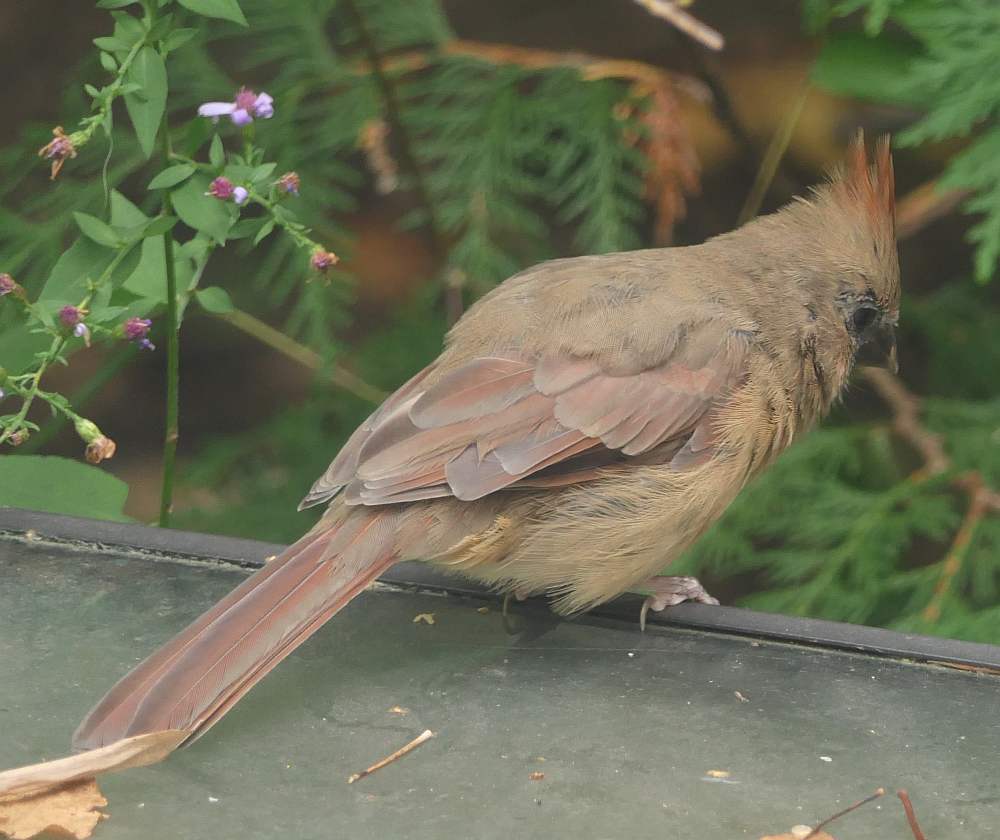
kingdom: Animalia
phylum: Chordata
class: Aves
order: Passeriformes
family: Cardinalidae
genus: Cardinalis
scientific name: Cardinalis cardinalis
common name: Northern cardinal
